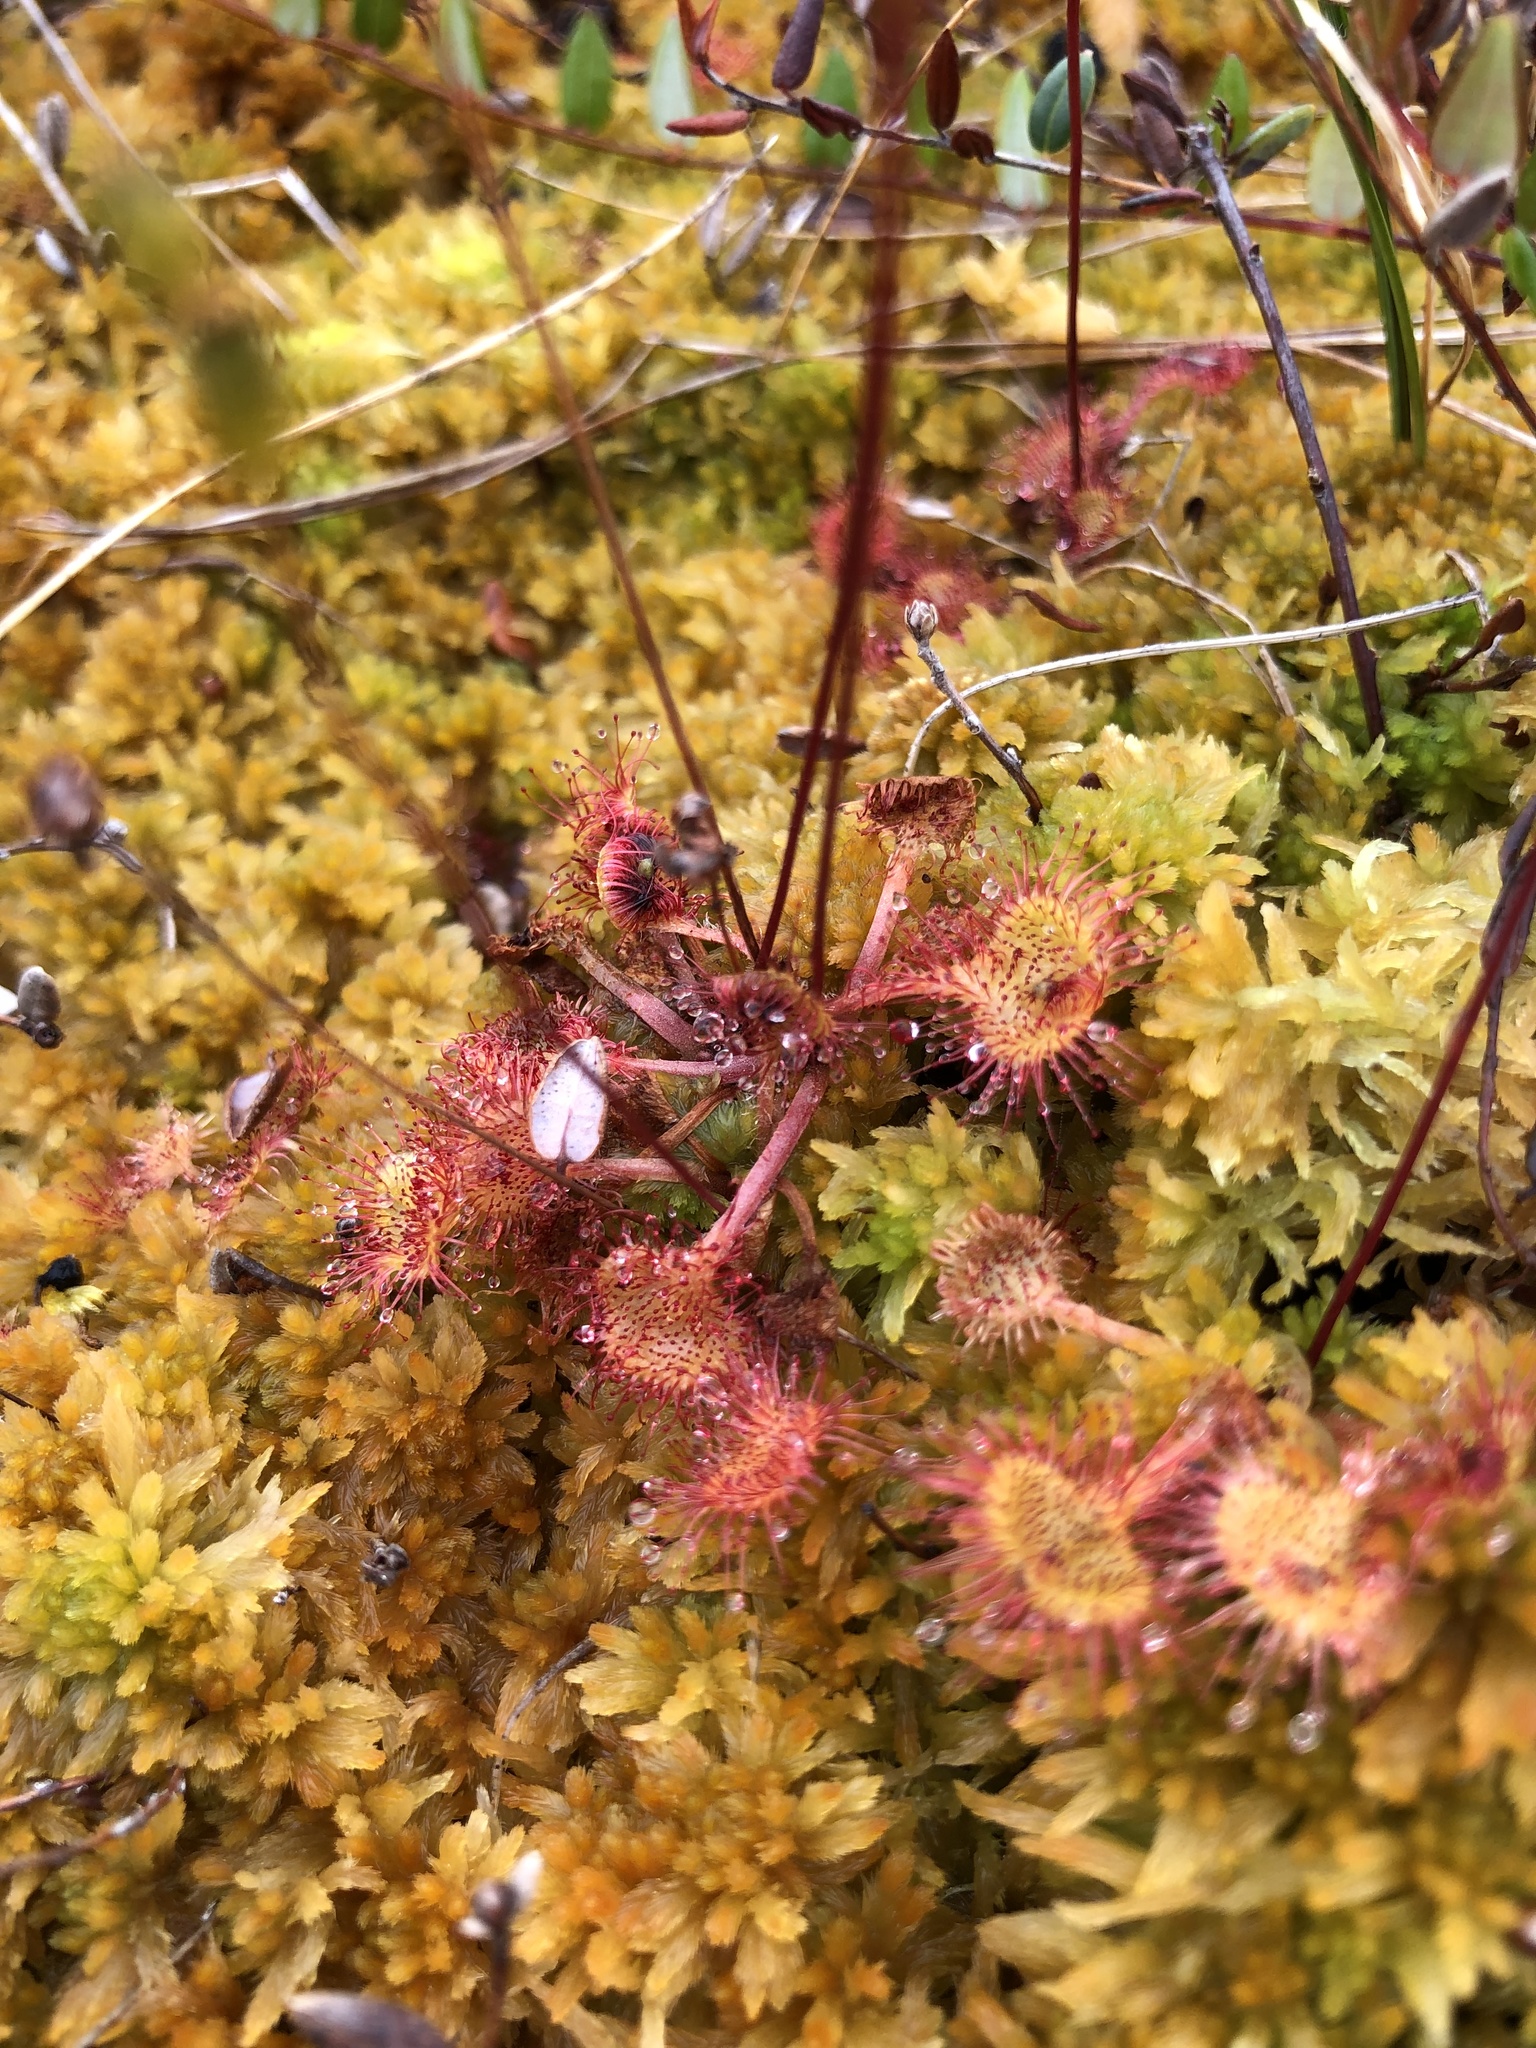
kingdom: Plantae
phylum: Tracheophyta
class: Magnoliopsida
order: Caryophyllales
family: Droseraceae
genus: Drosera
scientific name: Drosera rotundifolia
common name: Round-leaved sundew
